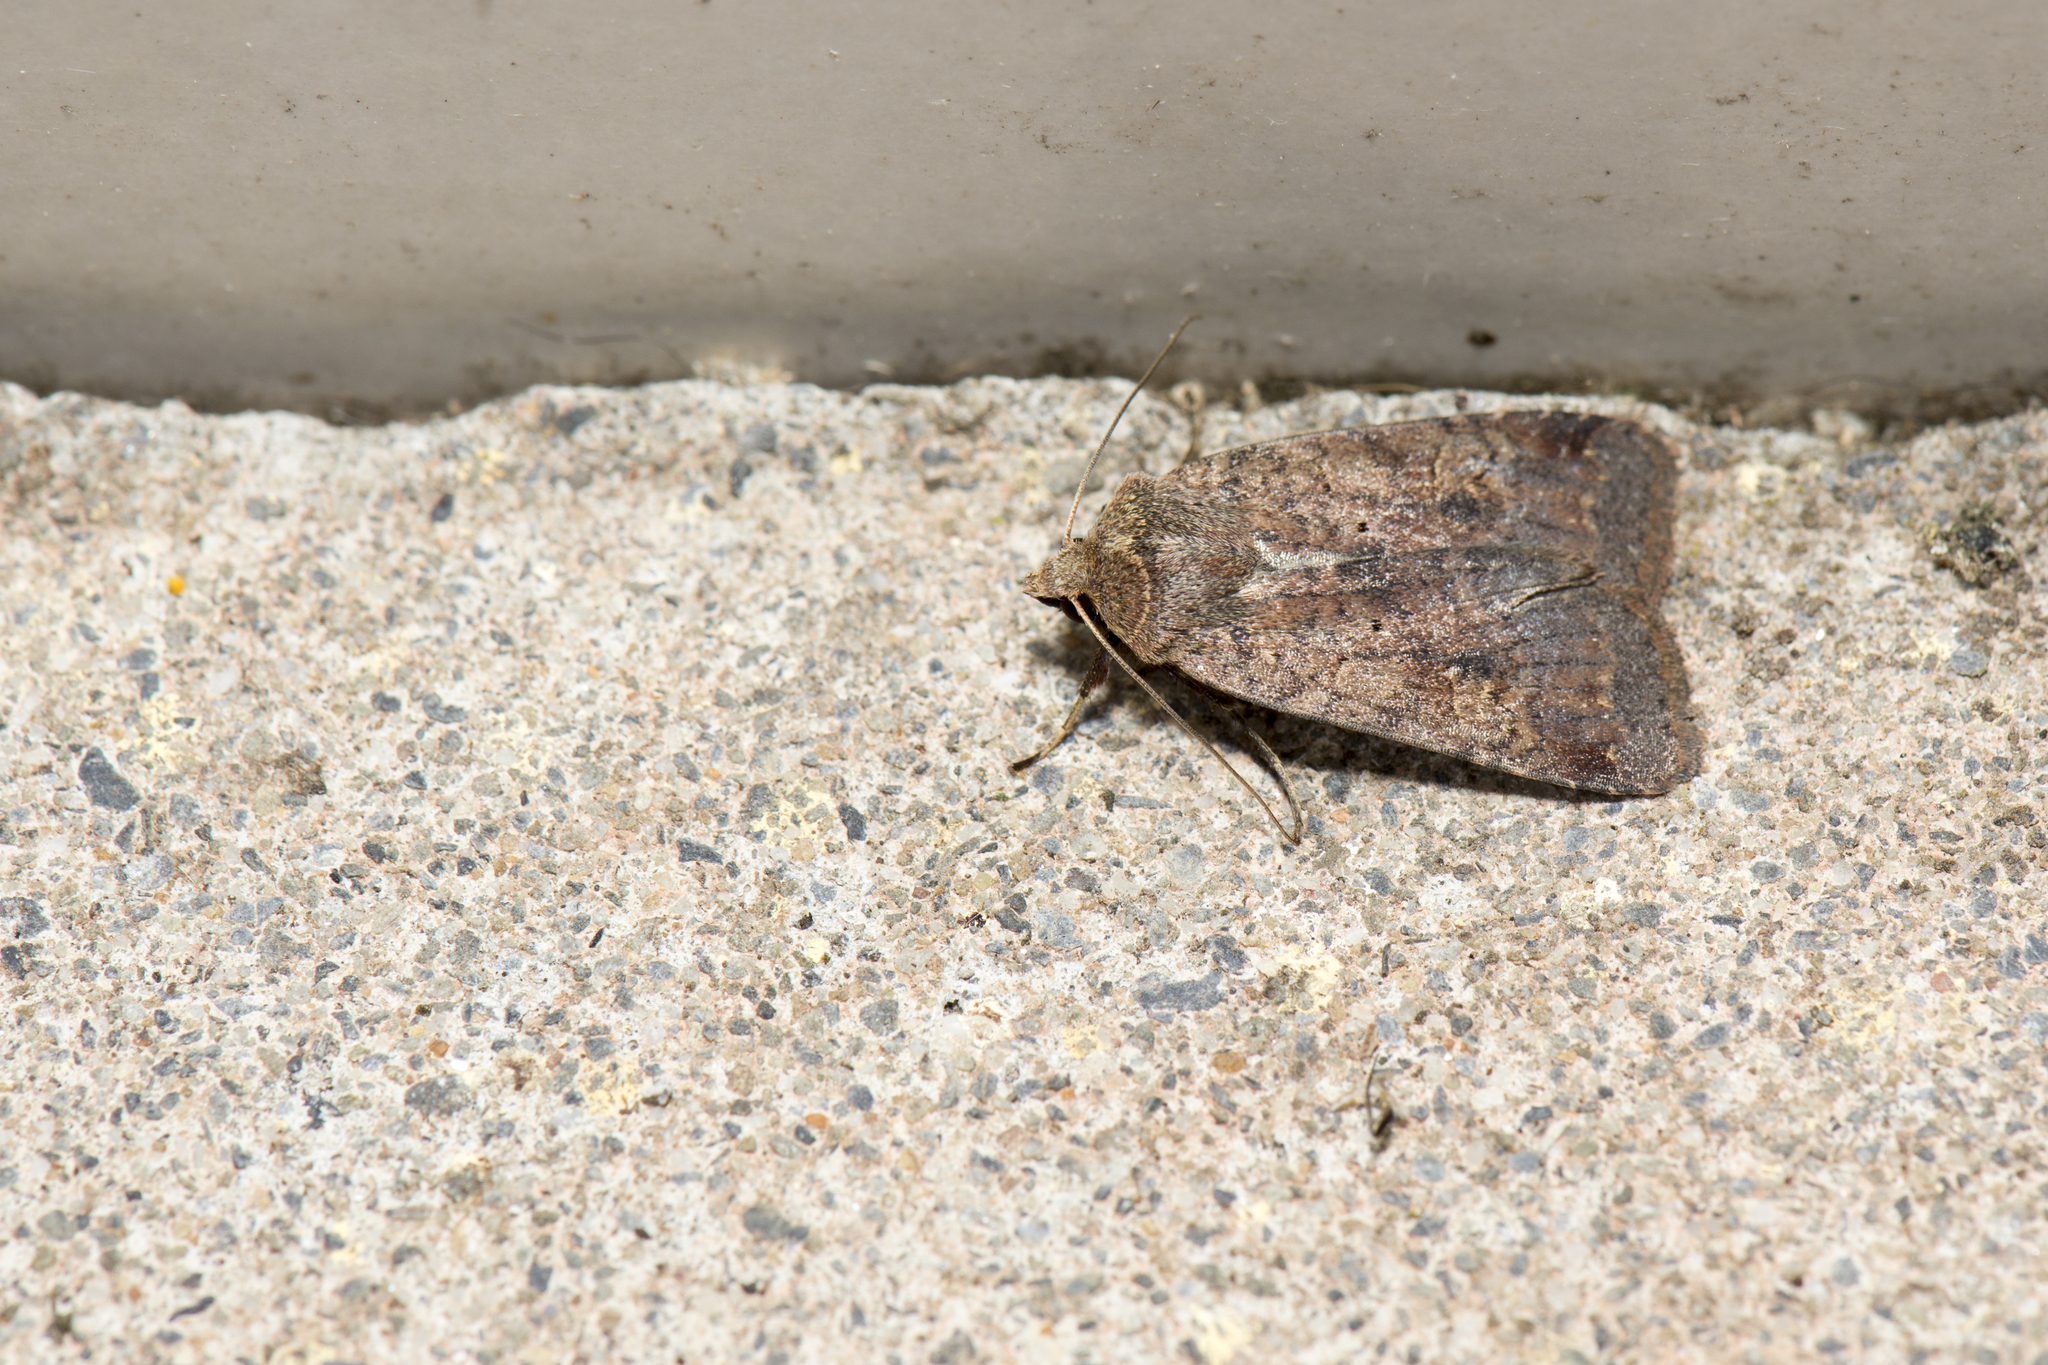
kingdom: Animalia
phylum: Arthropoda
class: Insecta
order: Lepidoptera
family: Noctuidae
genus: Diarsia
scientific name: Diarsia formosensis
